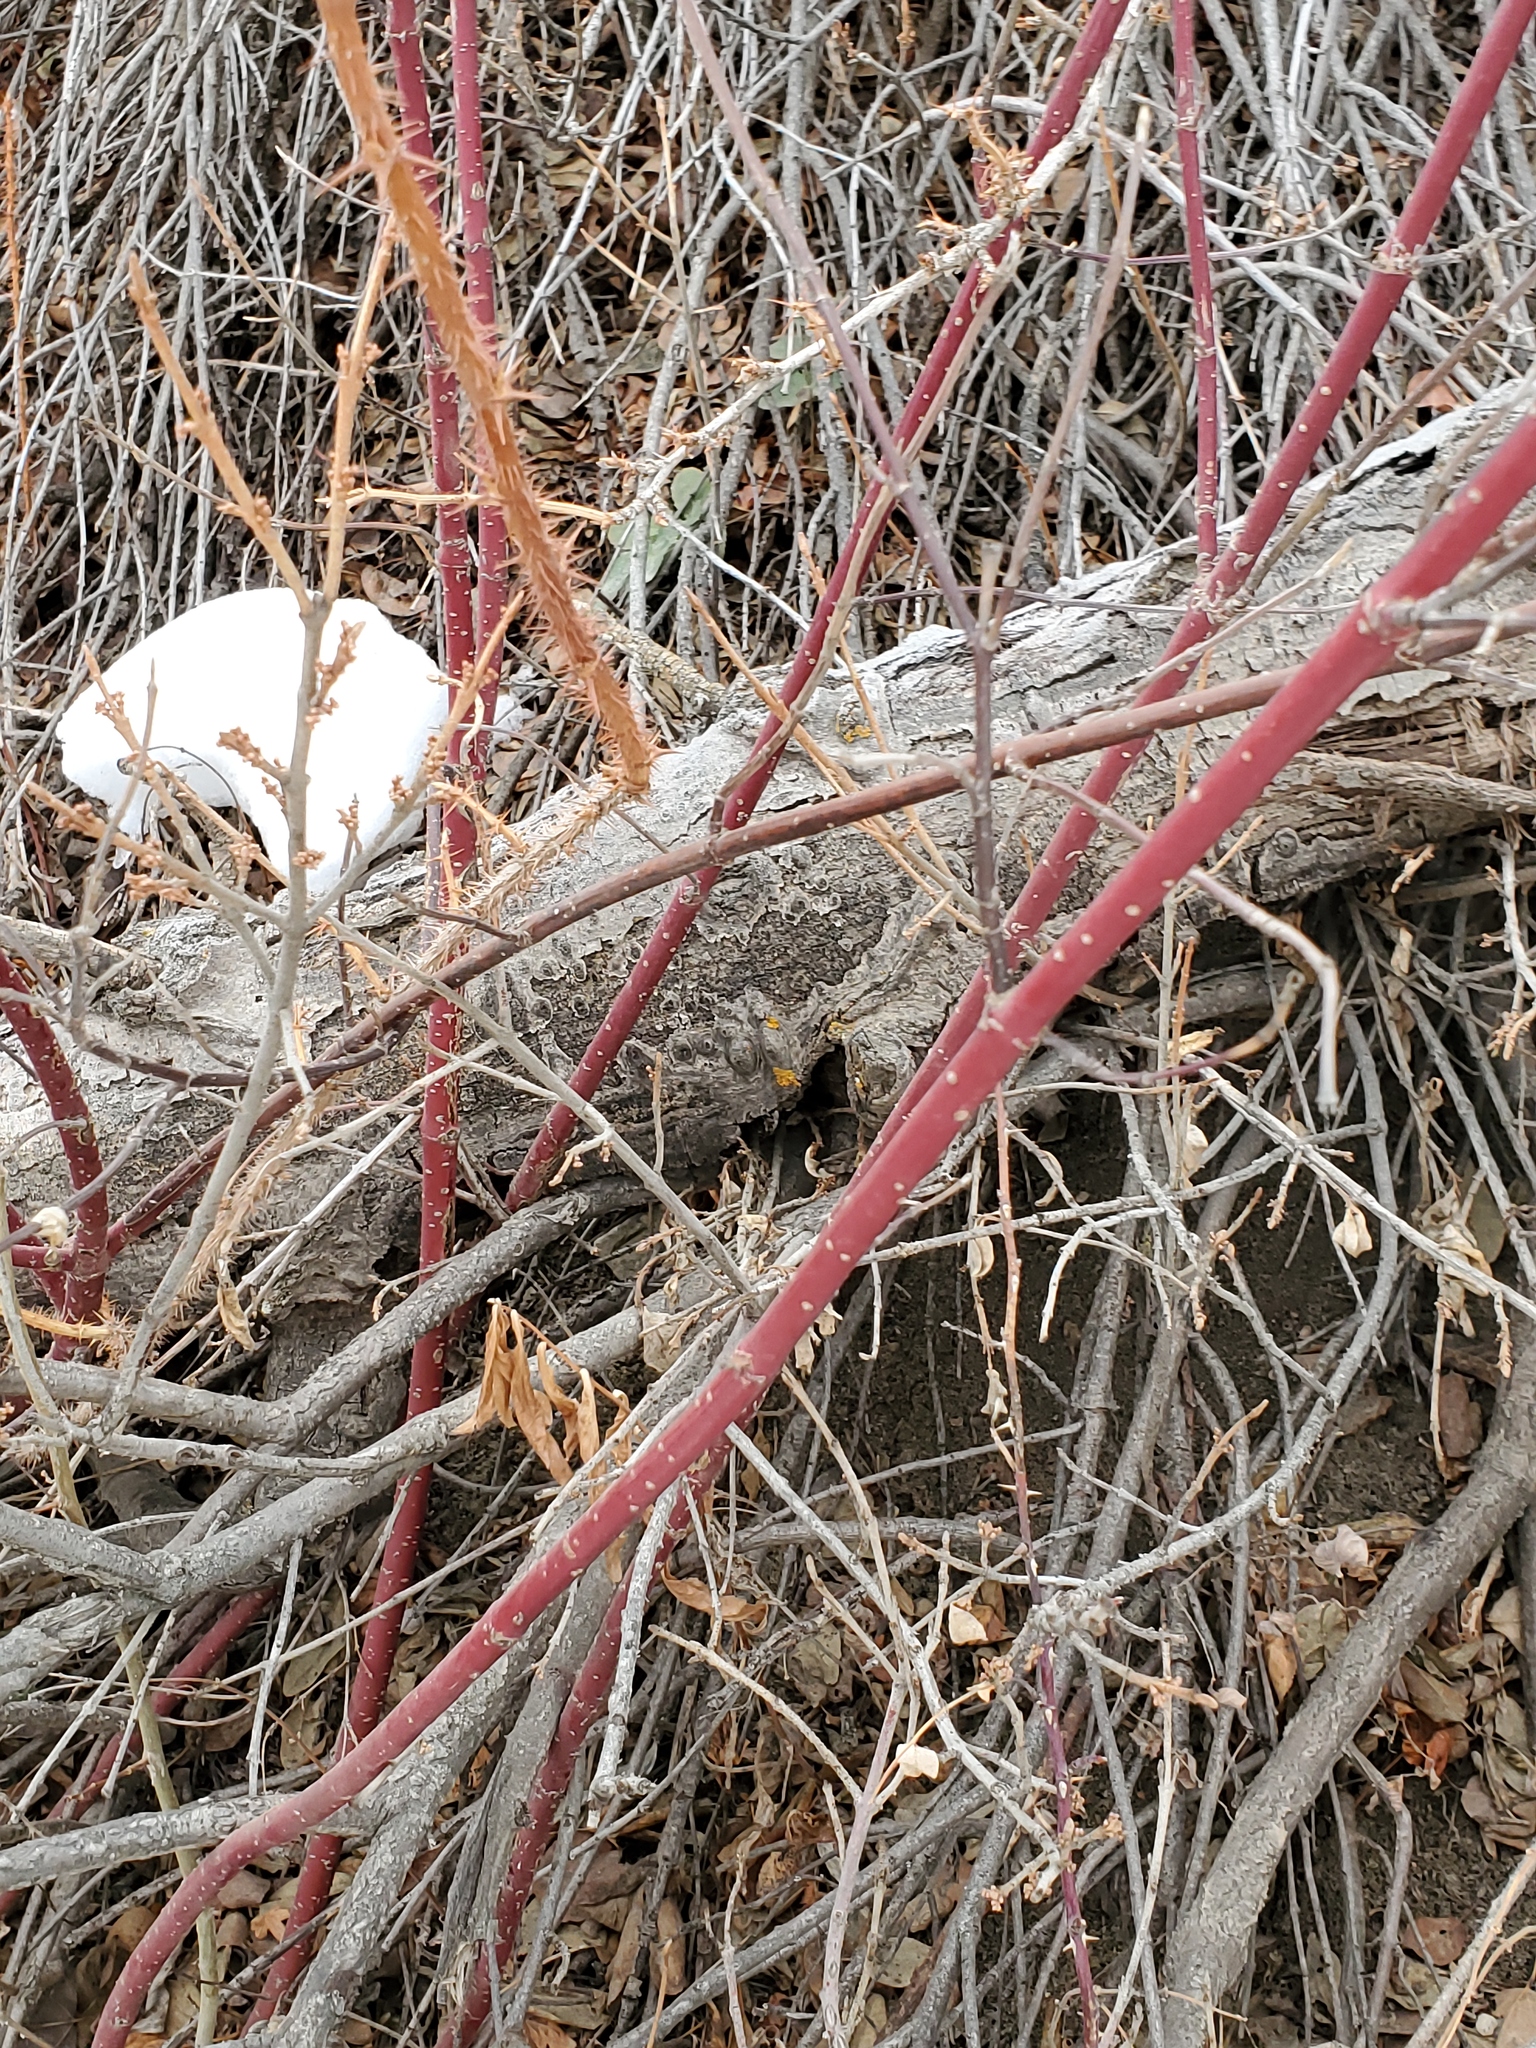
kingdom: Plantae
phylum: Tracheophyta
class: Magnoliopsida
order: Cornales
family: Cornaceae
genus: Cornus
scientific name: Cornus sericea
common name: Red-osier dogwood
